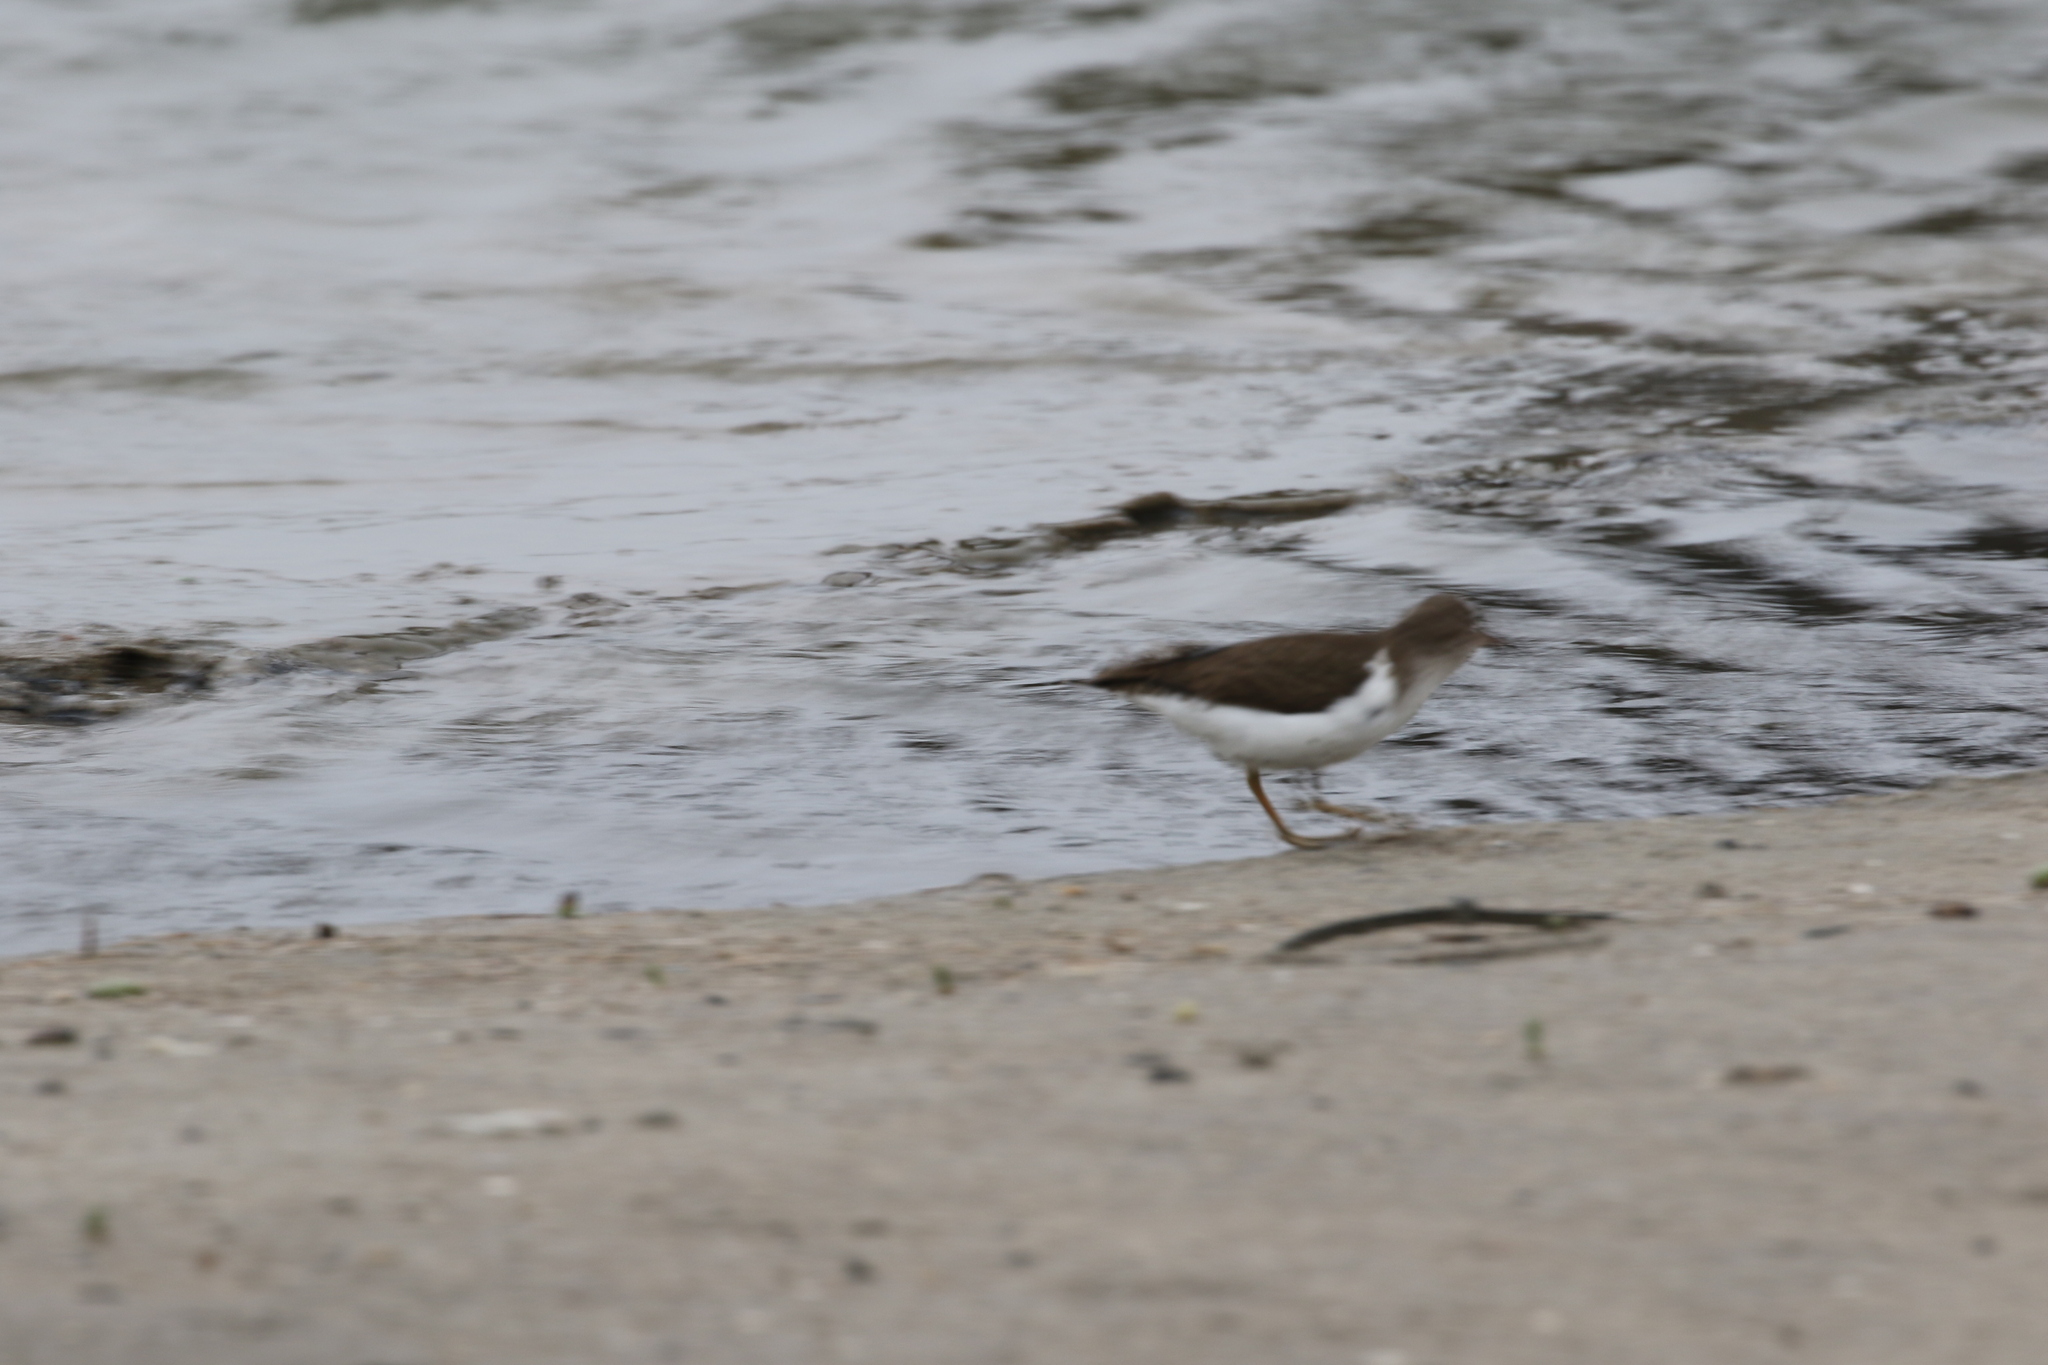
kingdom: Animalia
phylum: Chordata
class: Aves
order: Charadriiformes
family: Scolopacidae
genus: Actitis
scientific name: Actitis macularius
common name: Spotted sandpiper
